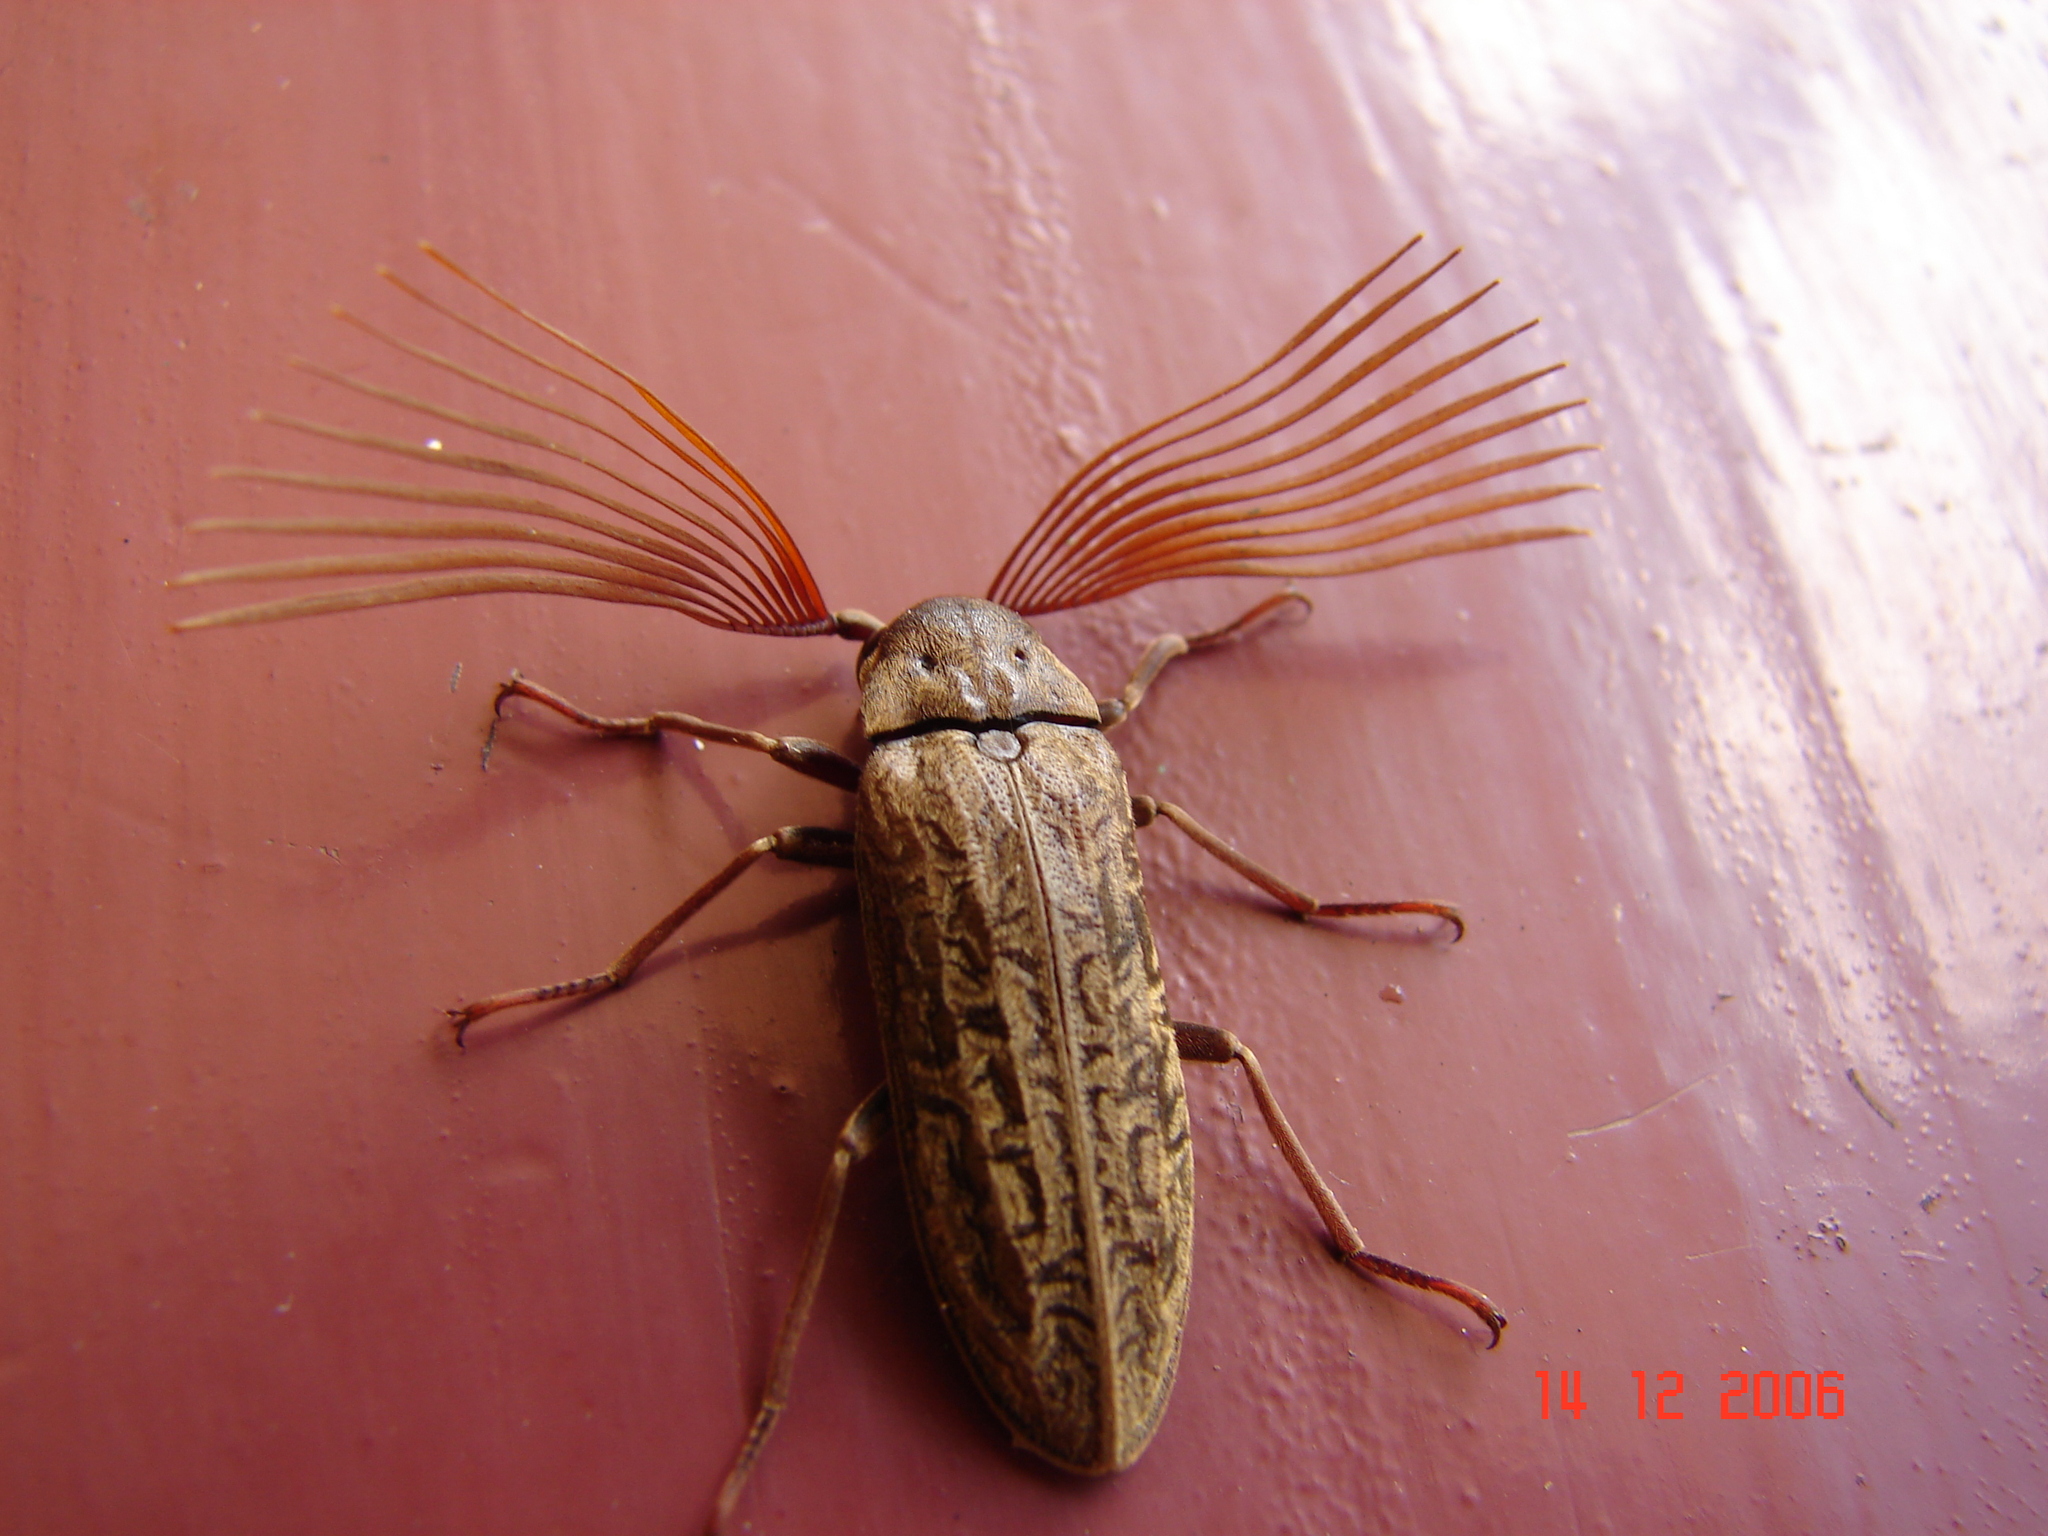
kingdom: Animalia
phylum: Arthropoda
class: Insecta
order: Coleoptera
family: Rhipiceridae
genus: Callirhipis
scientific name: Callirhipis
